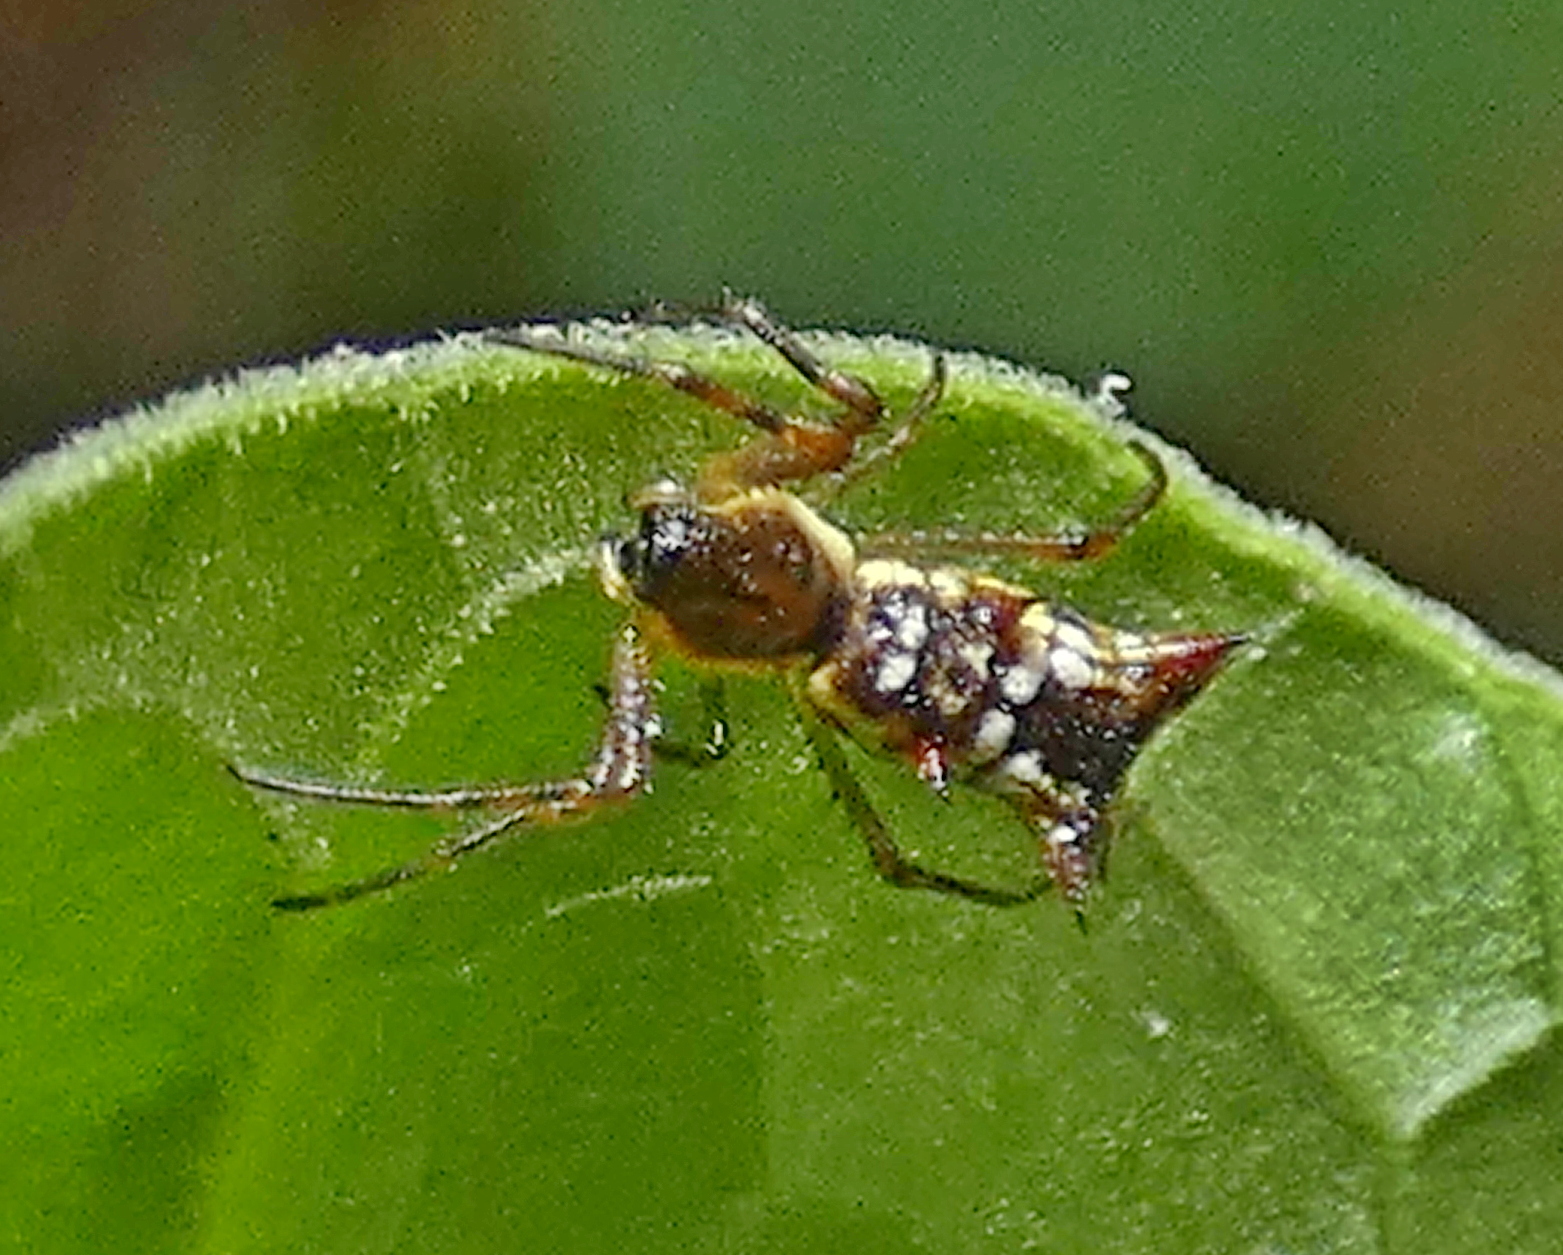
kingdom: Animalia
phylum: Arthropoda
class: Arachnida
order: Araneae
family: Araneidae
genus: Micrathena
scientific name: Micrathena fissispina
